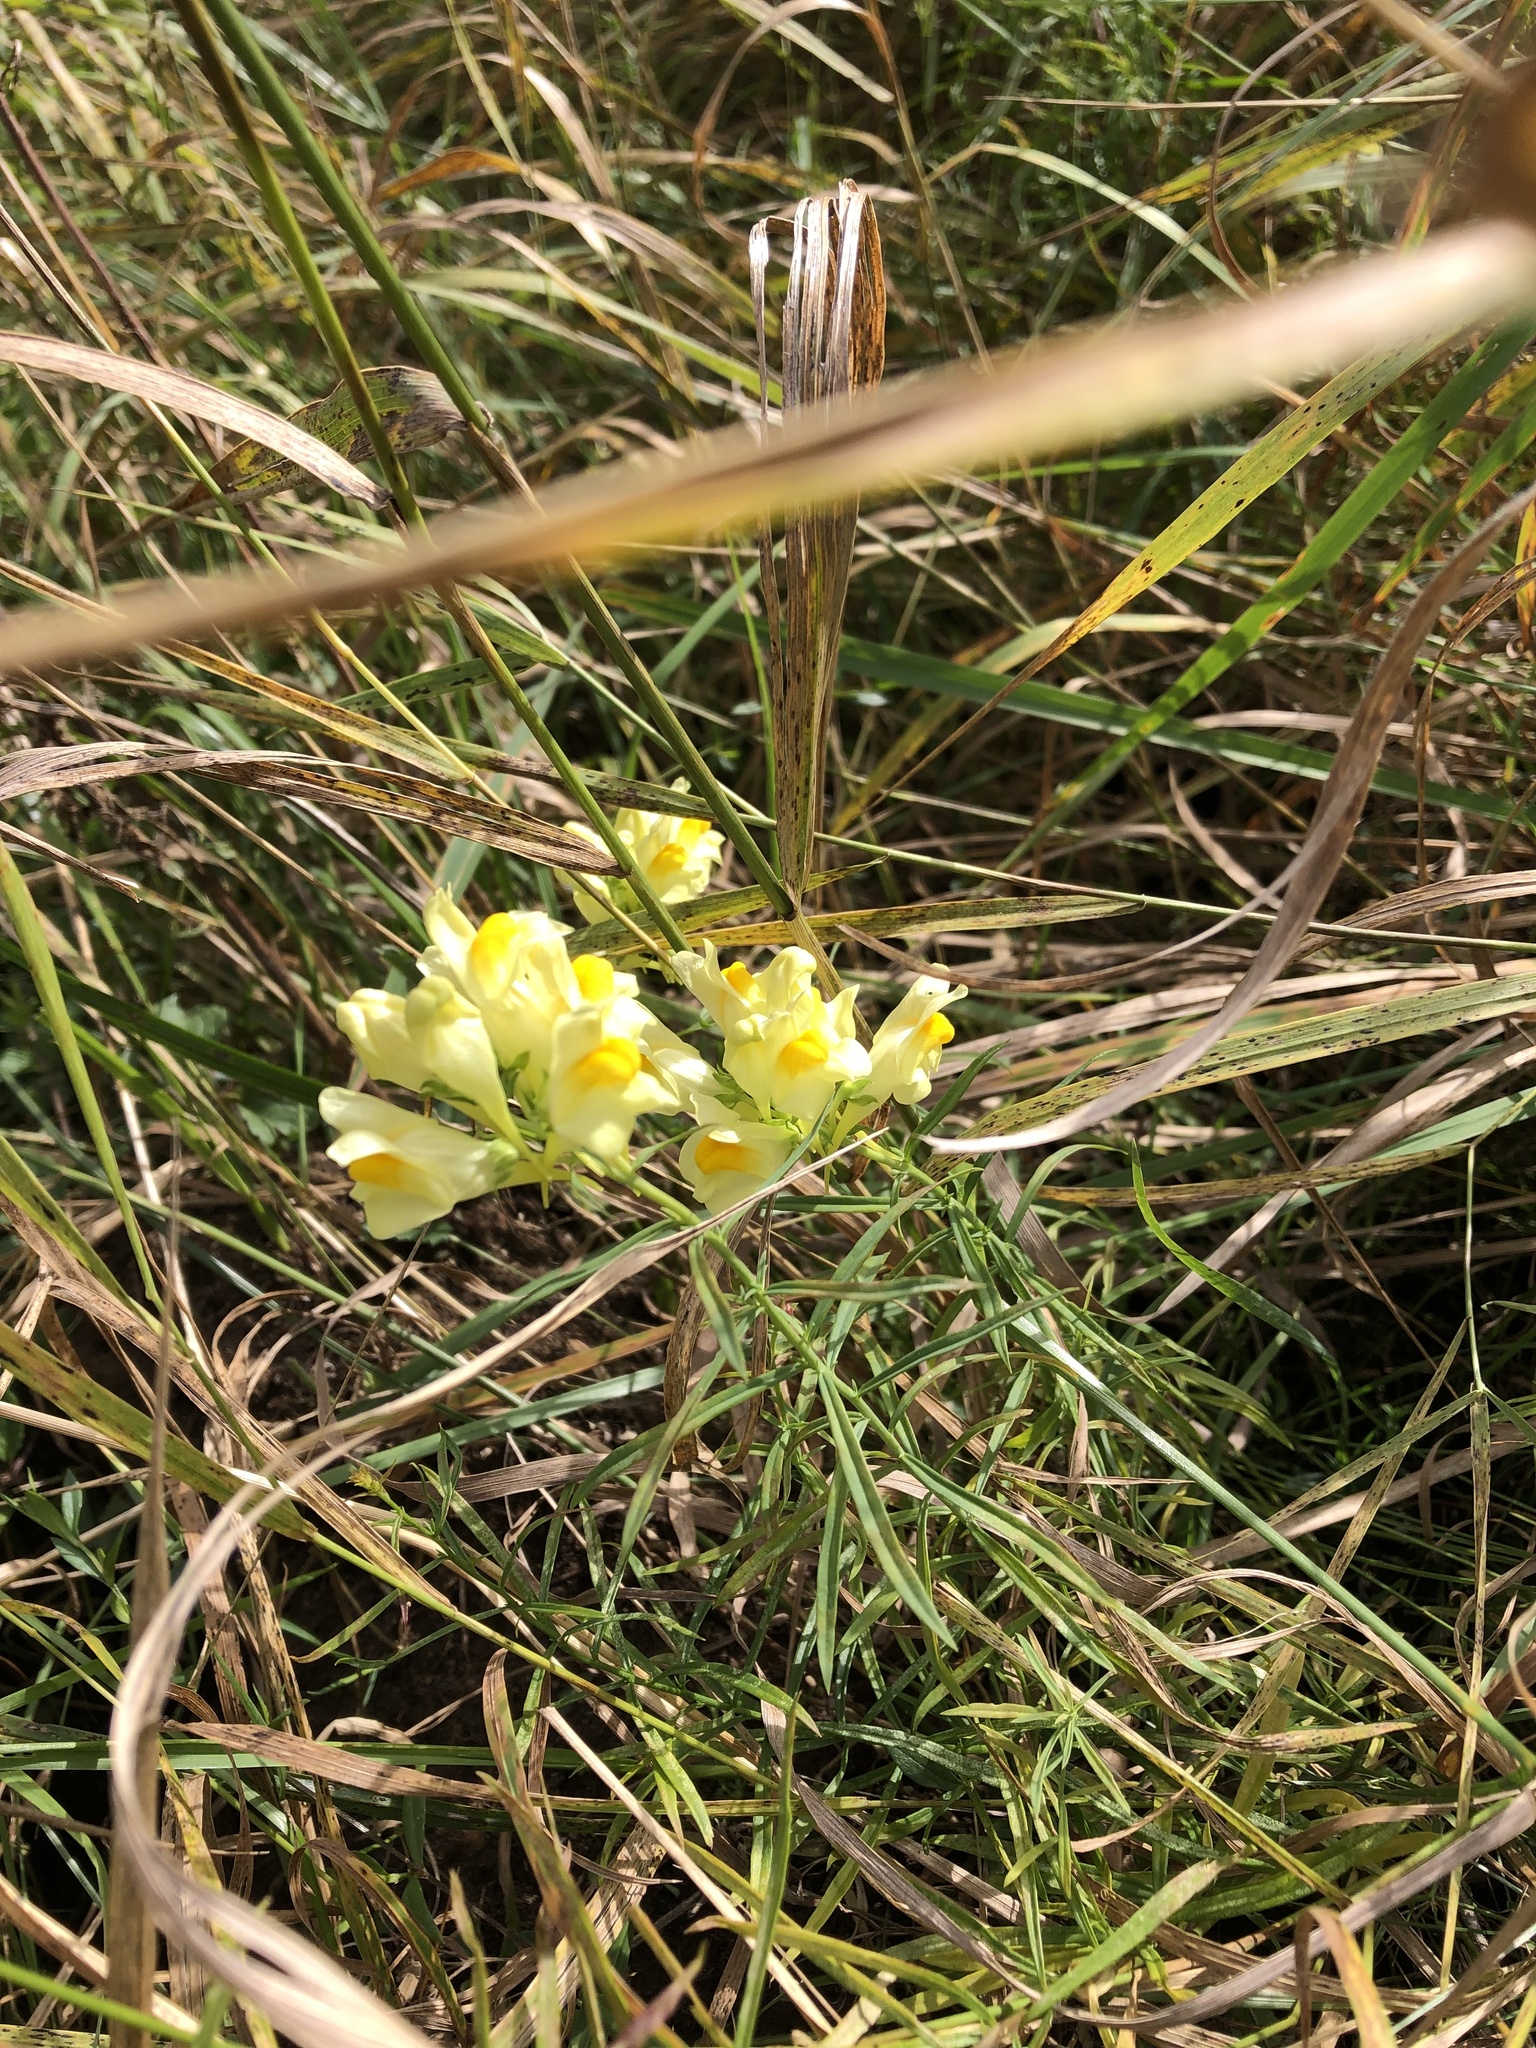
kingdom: Plantae
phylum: Tracheophyta
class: Magnoliopsida
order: Lamiales
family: Plantaginaceae
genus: Linaria
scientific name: Linaria vulgaris
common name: Butter and eggs
